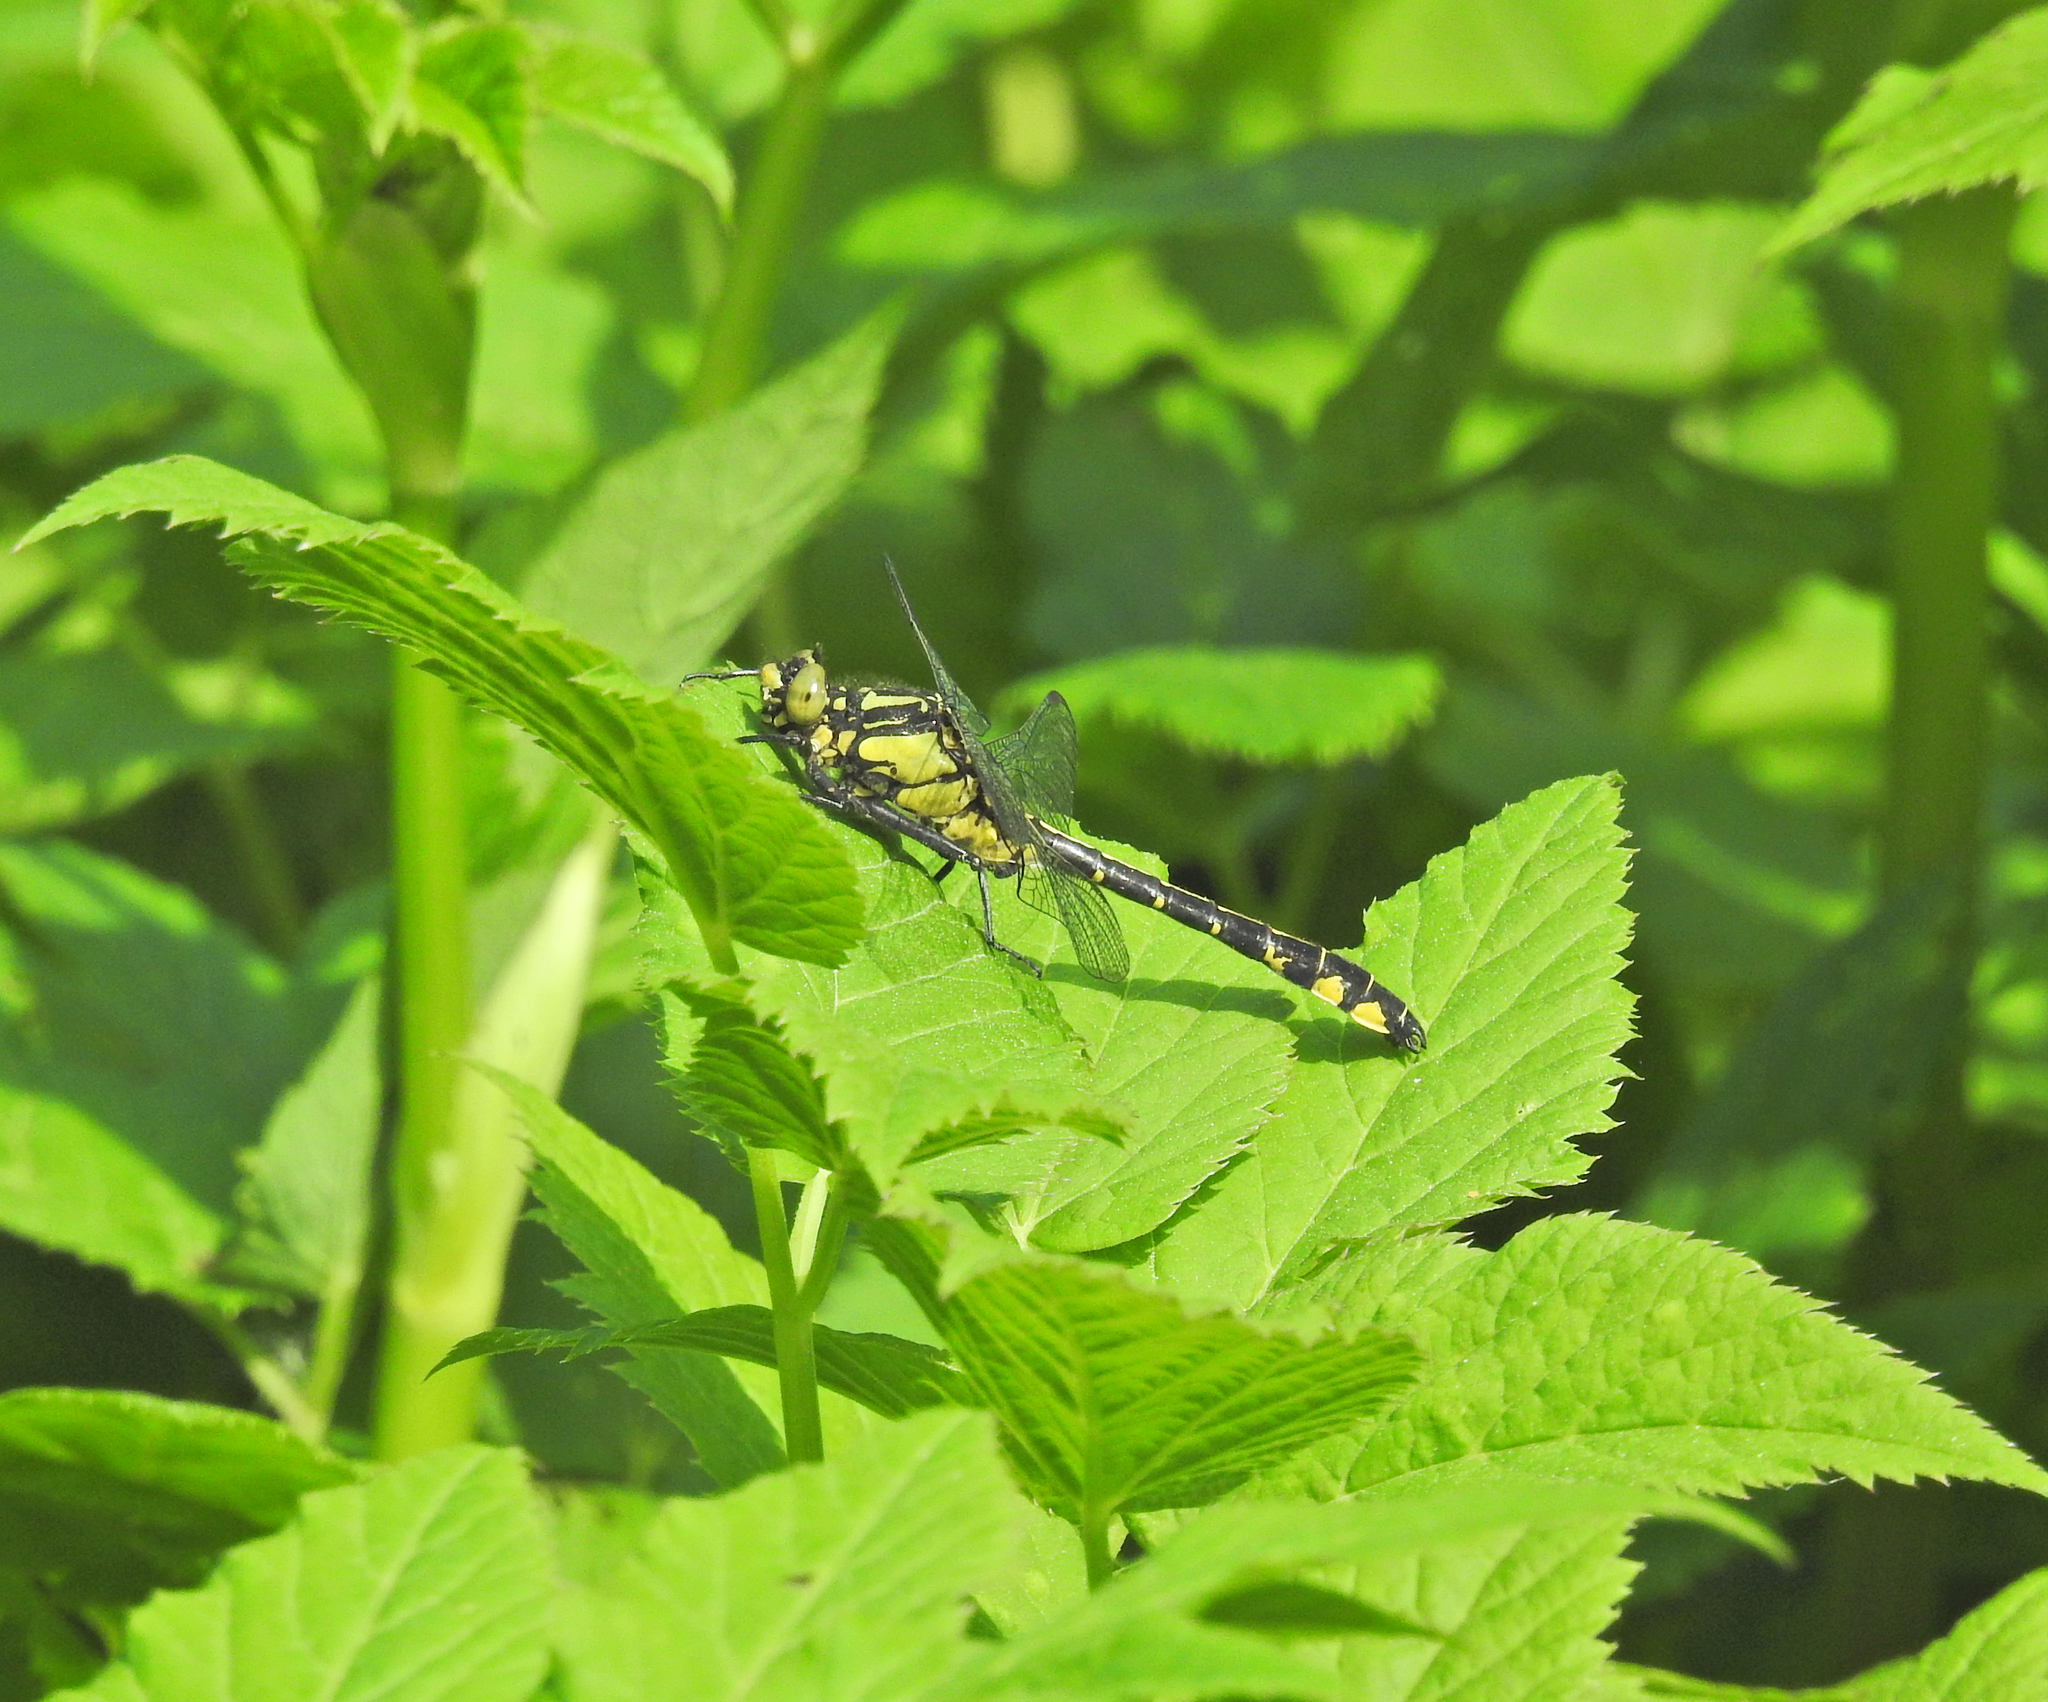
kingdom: Animalia
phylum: Arthropoda
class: Insecta
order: Odonata
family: Gomphidae
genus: Gomphus
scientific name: Gomphus vulgatissimus
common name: Club-tailed dragonfly
